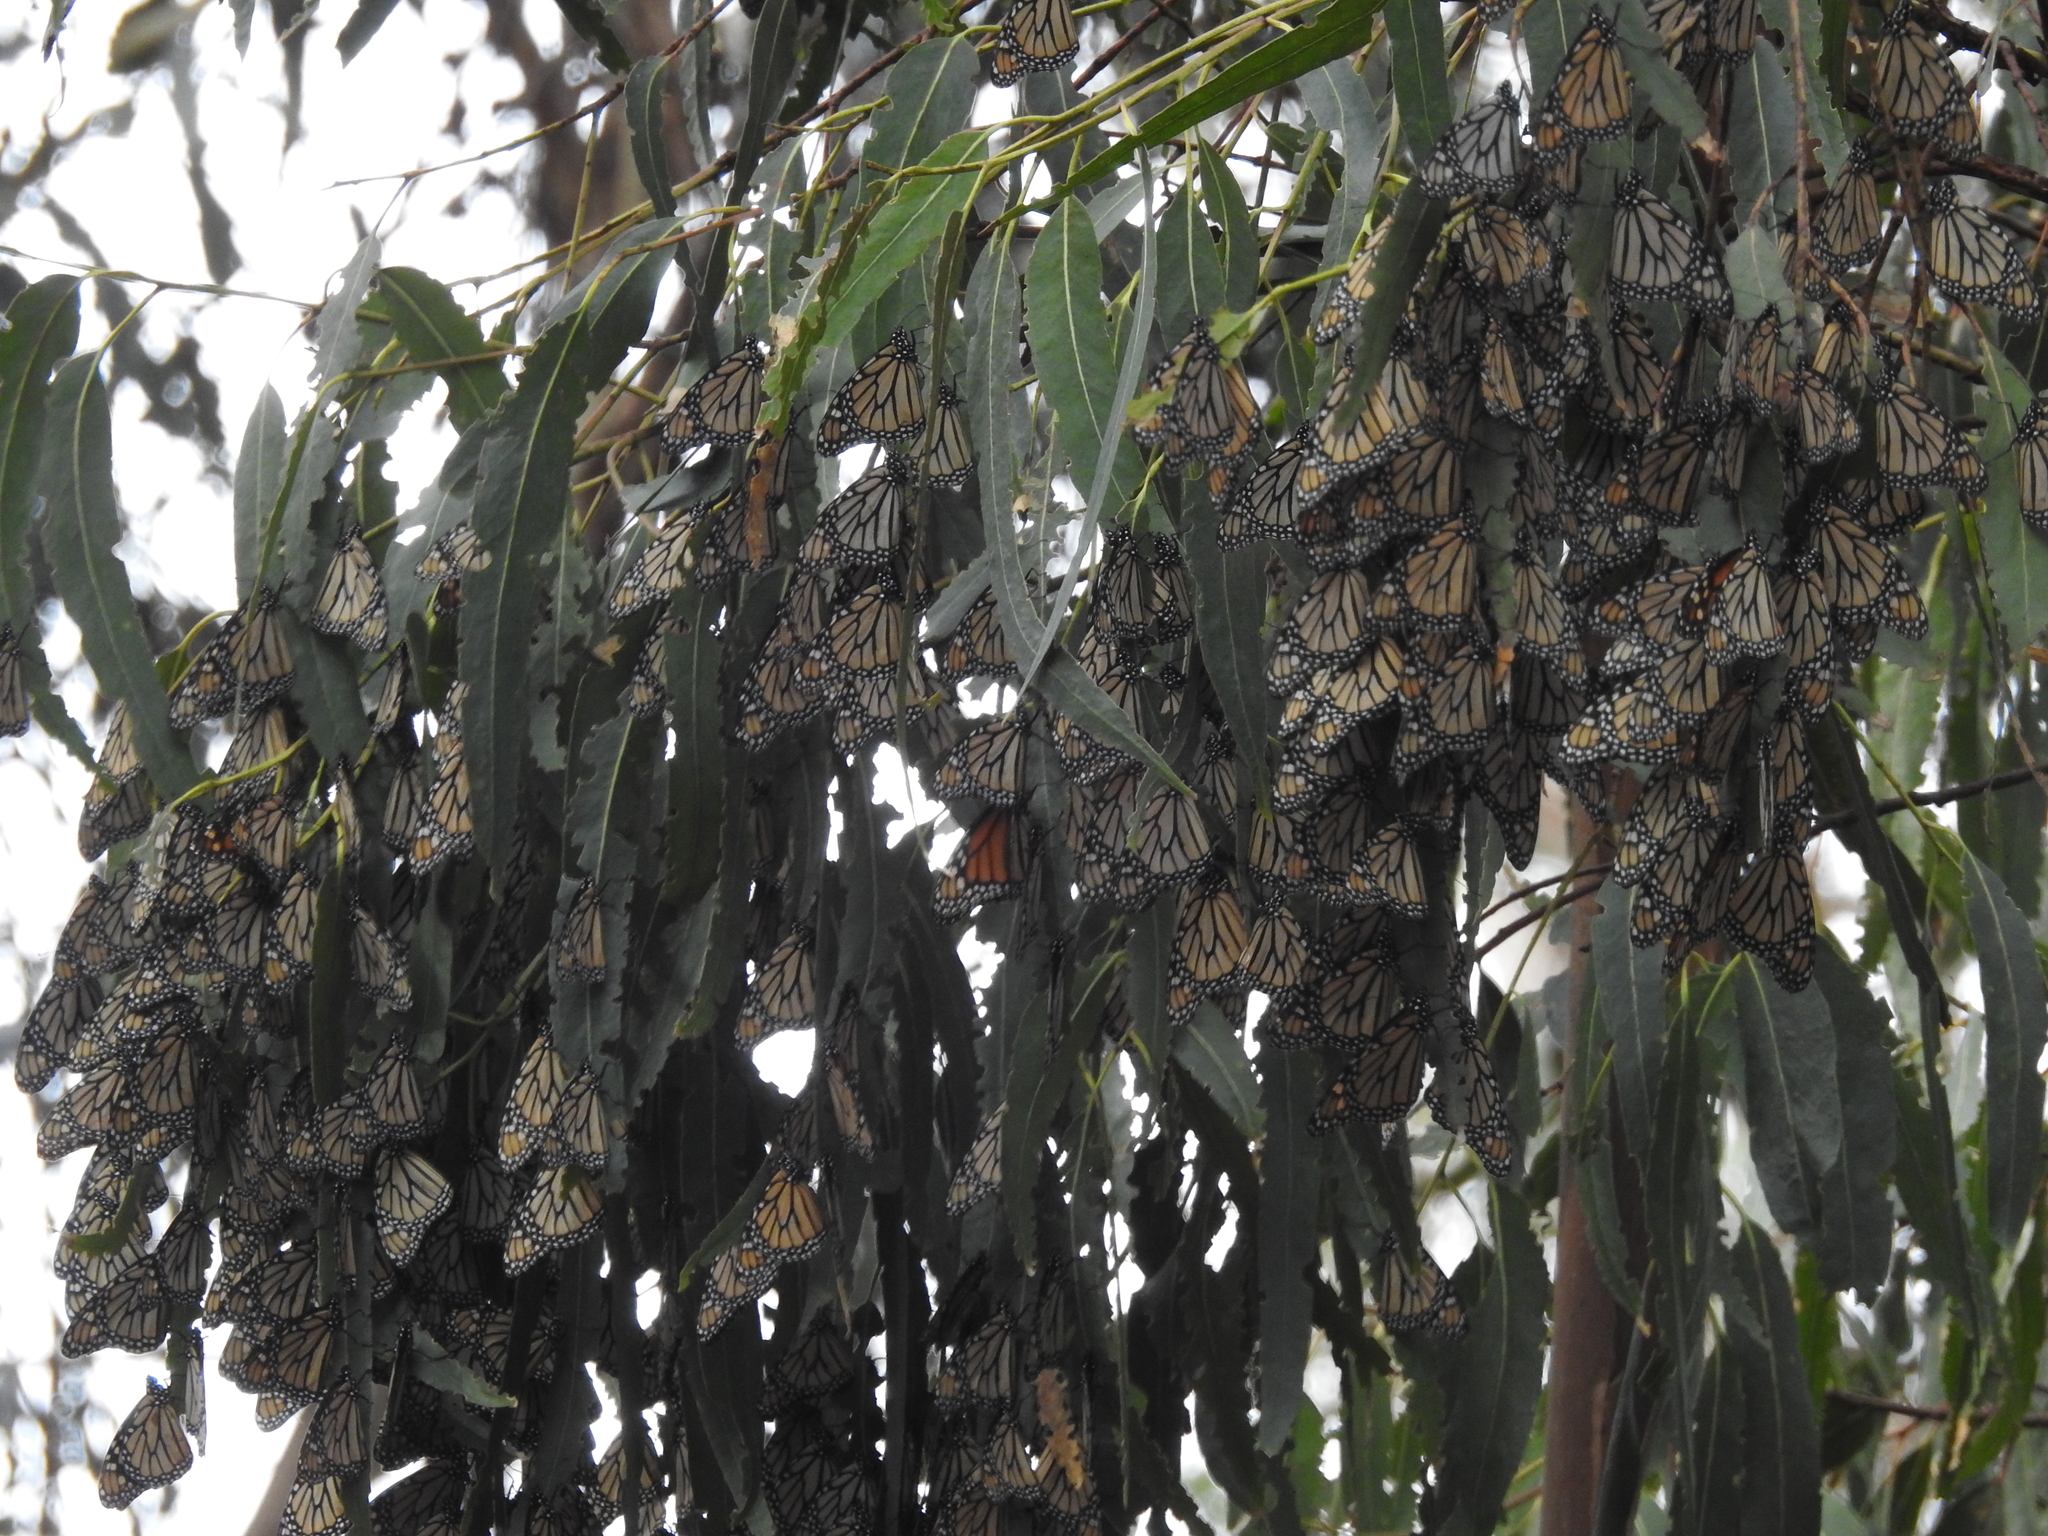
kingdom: Animalia
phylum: Arthropoda
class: Insecta
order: Lepidoptera
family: Nymphalidae
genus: Danaus
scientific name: Danaus plexippus
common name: Monarch
